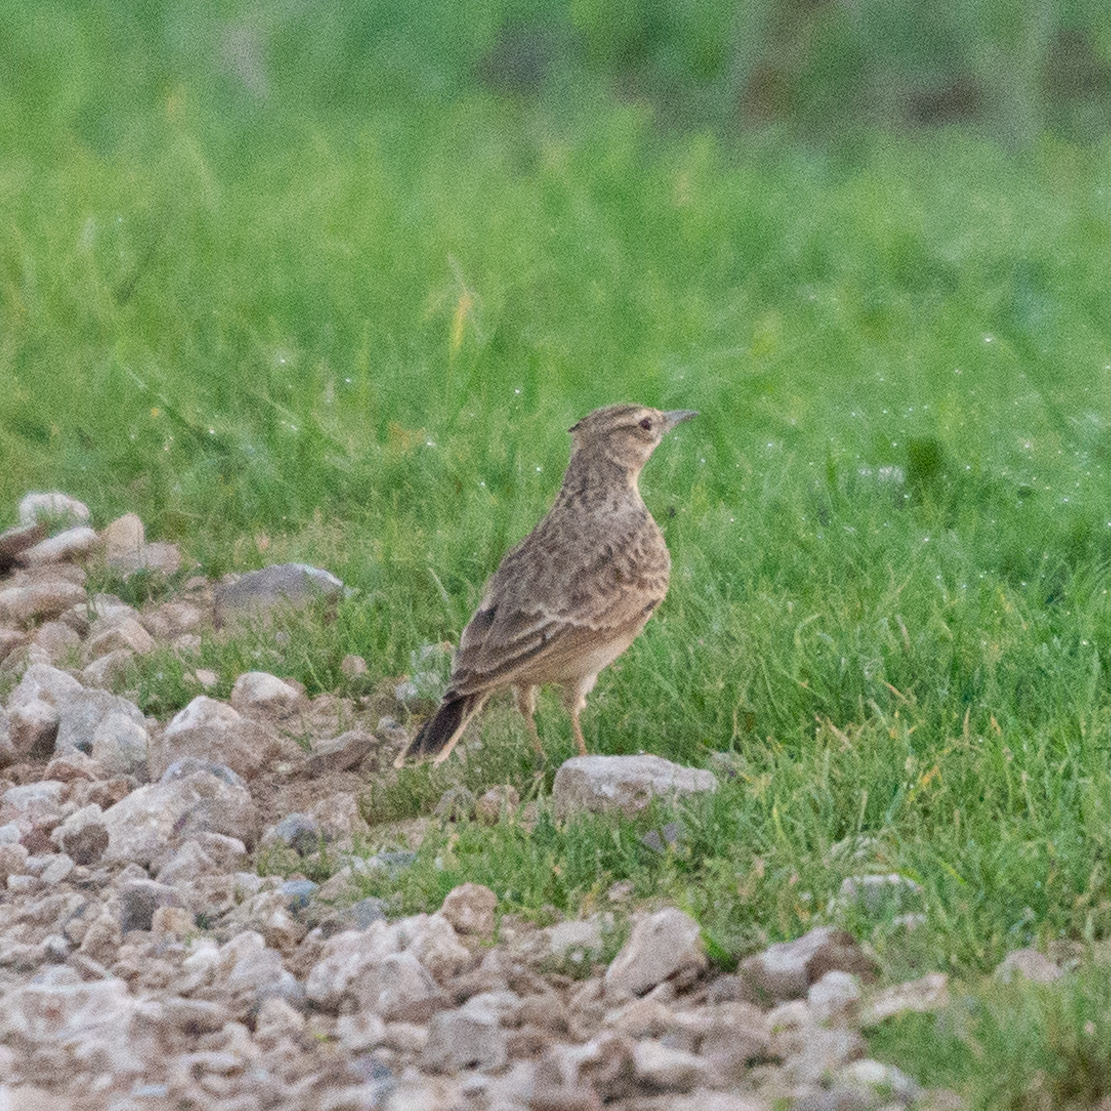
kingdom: Animalia
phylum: Chordata
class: Aves
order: Passeriformes
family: Alaudidae
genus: Galerida
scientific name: Galerida cristata
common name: Crested lark
